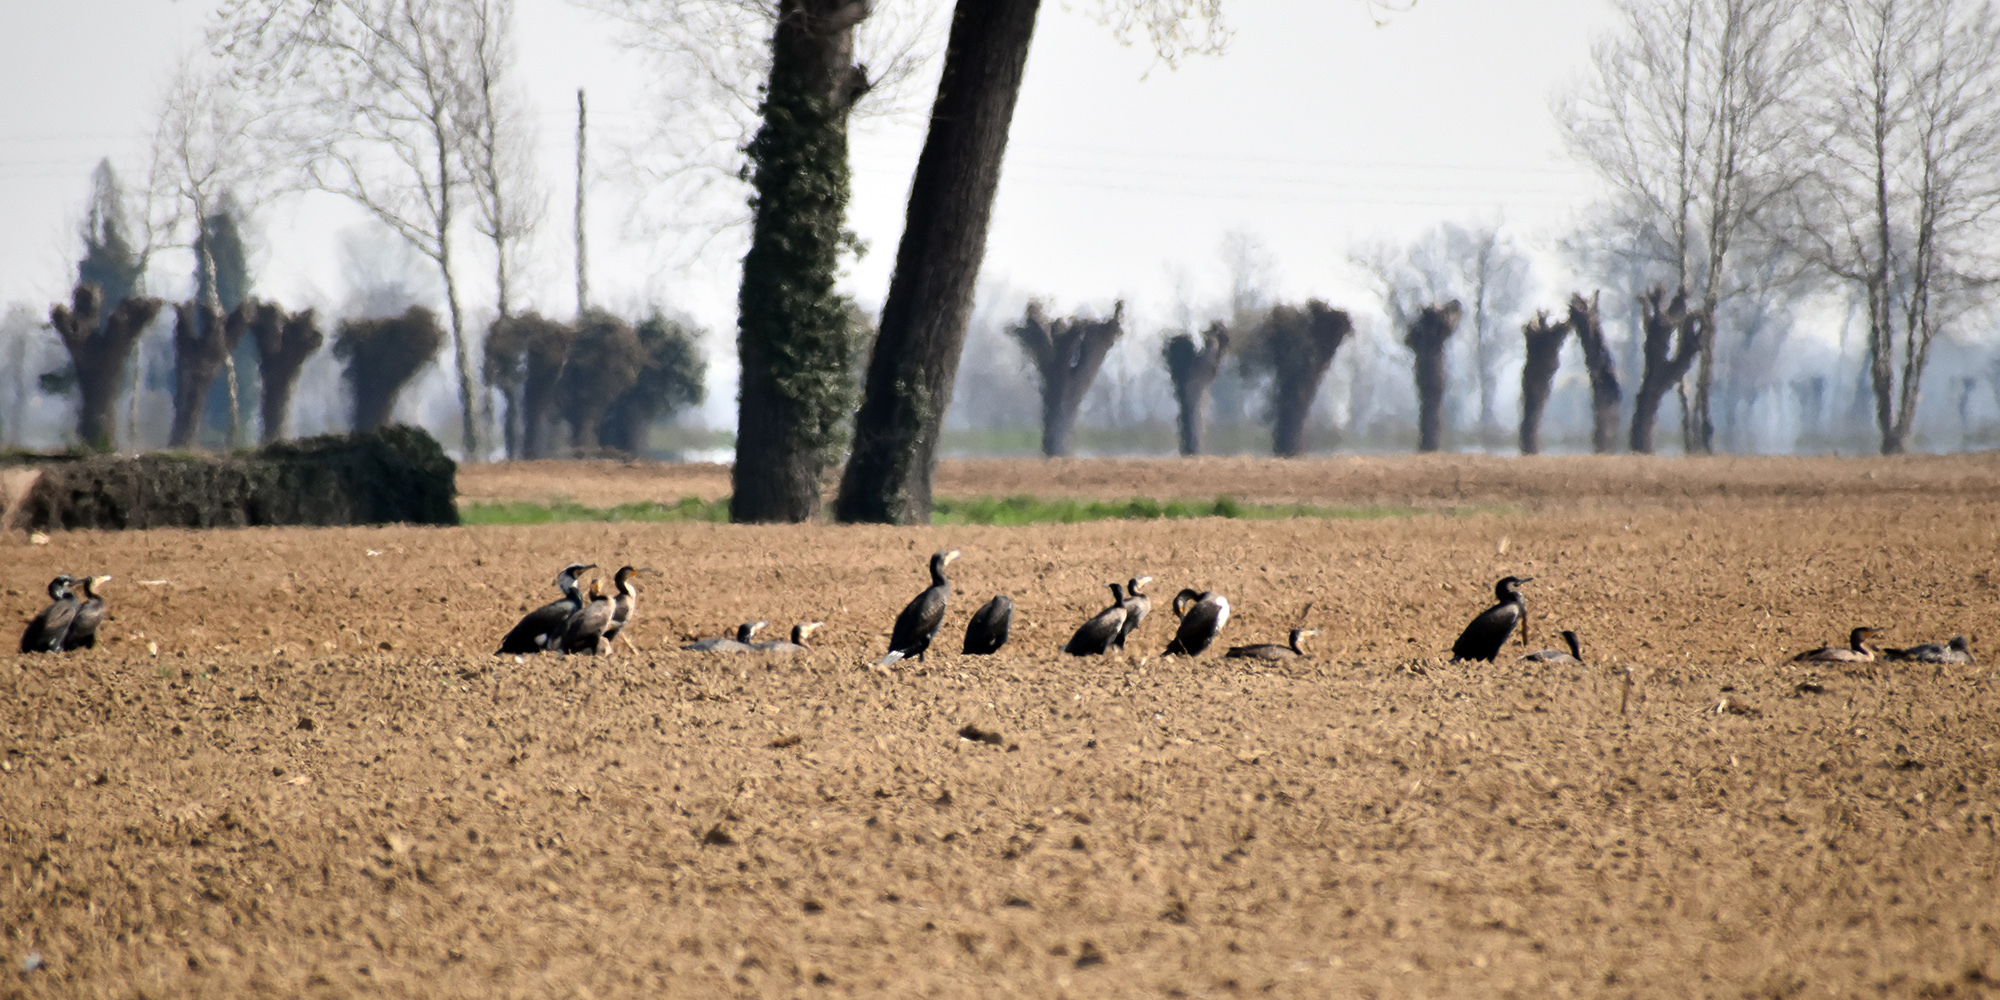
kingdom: Animalia
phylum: Chordata
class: Aves
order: Suliformes
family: Phalacrocoracidae
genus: Phalacrocorax
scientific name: Phalacrocorax carbo
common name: Great cormorant
